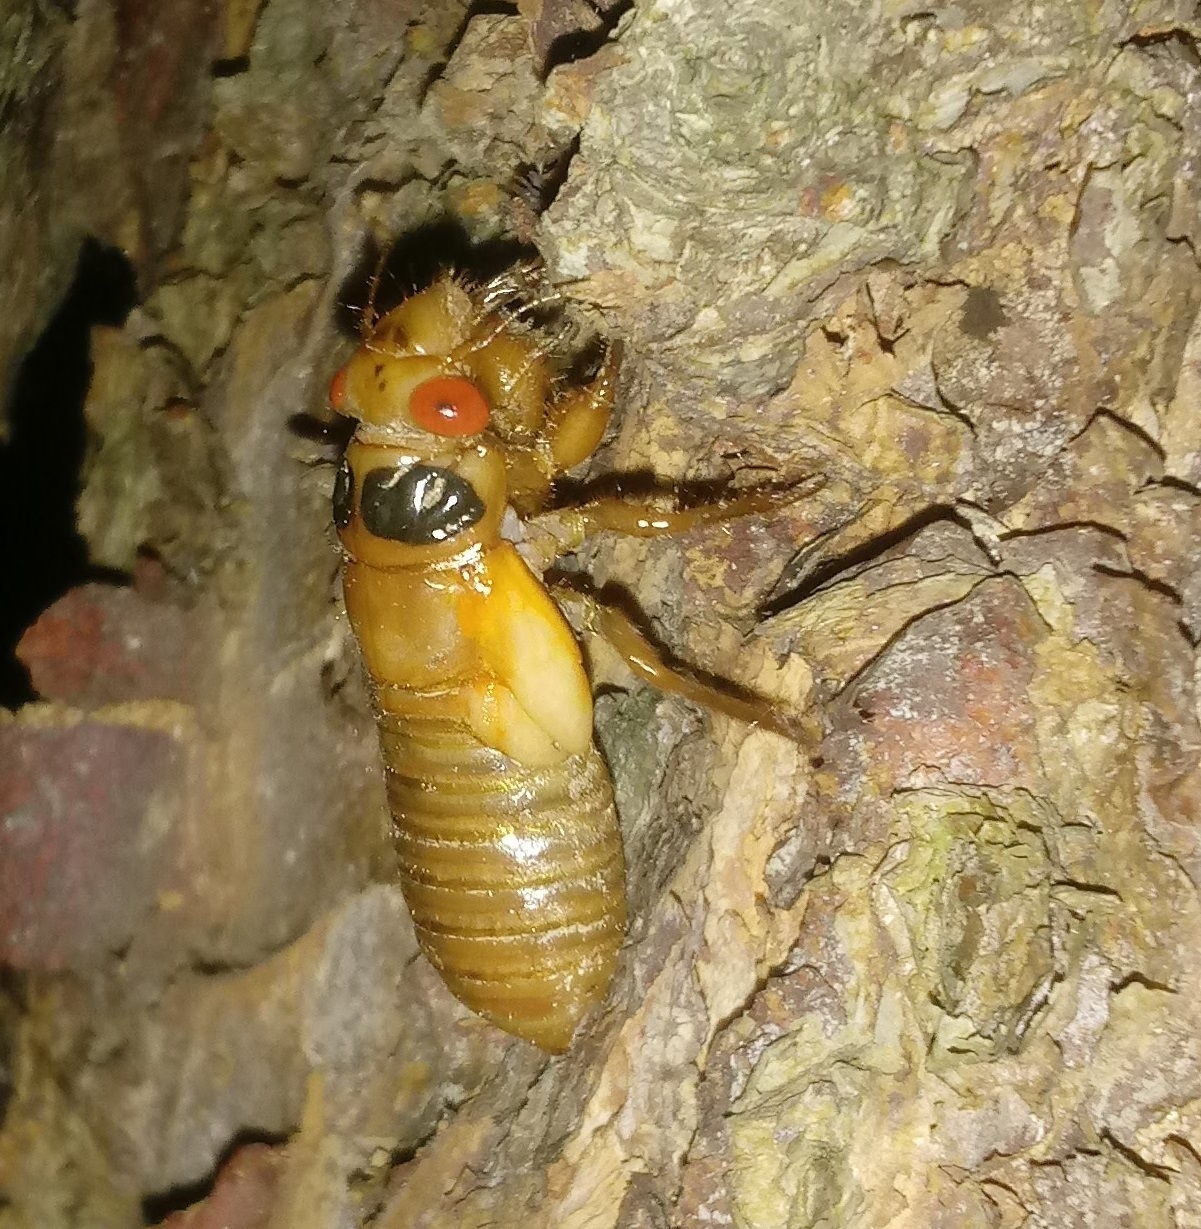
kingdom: Animalia
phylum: Arthropoda
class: Insecta
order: Hemiptera
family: Cicadidae
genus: Magicicada
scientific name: Magicicada
